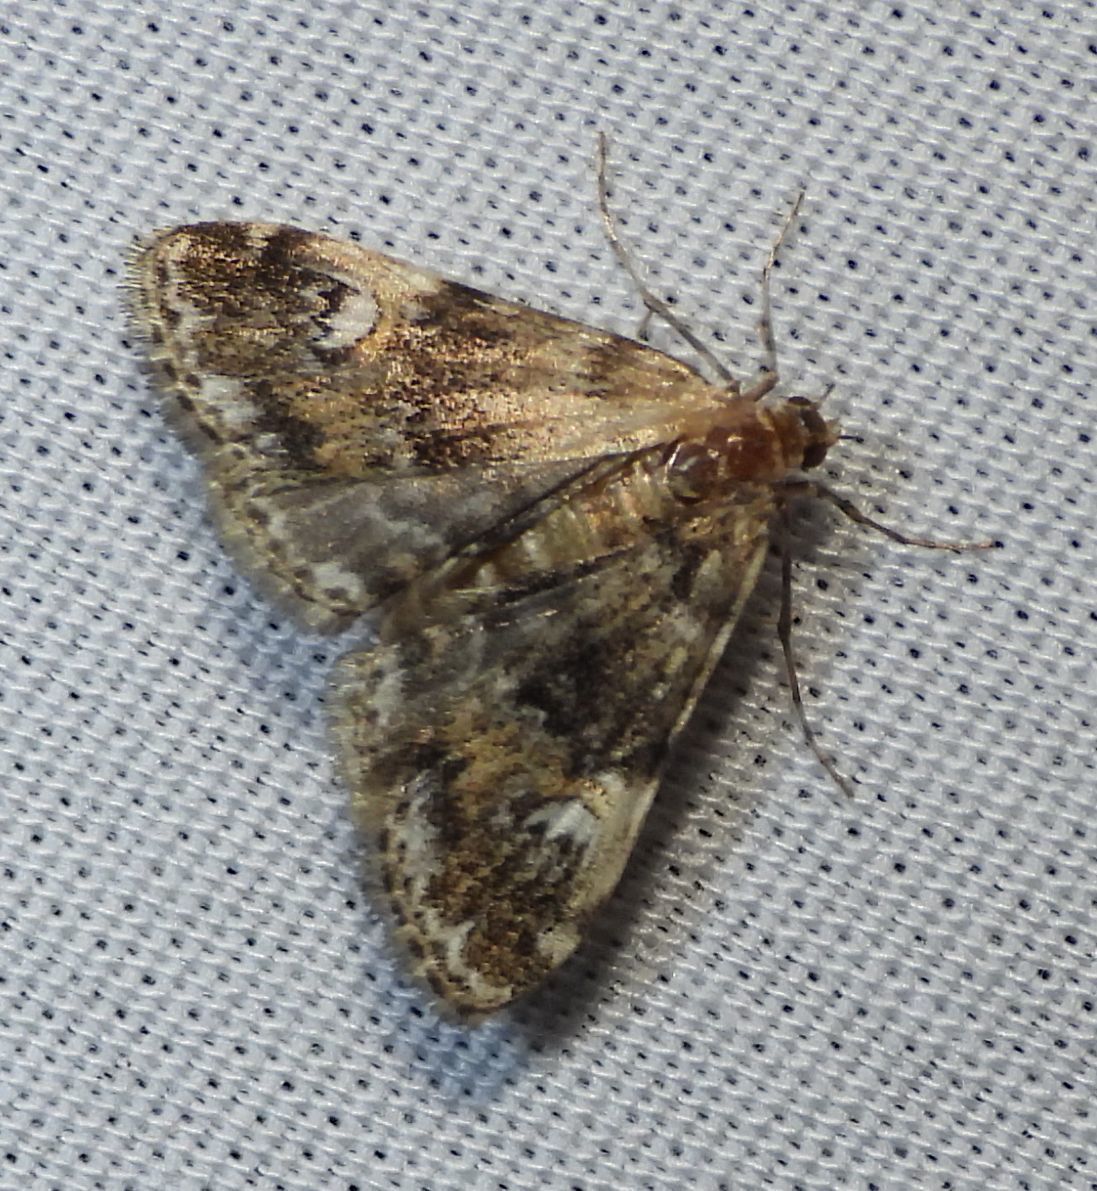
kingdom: Animalia
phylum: Arthropoda
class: Insecta
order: Lepidoptera
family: Crambidae
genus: Elophila
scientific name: Elophila obliteralis
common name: Waterlily leafcutter moth
